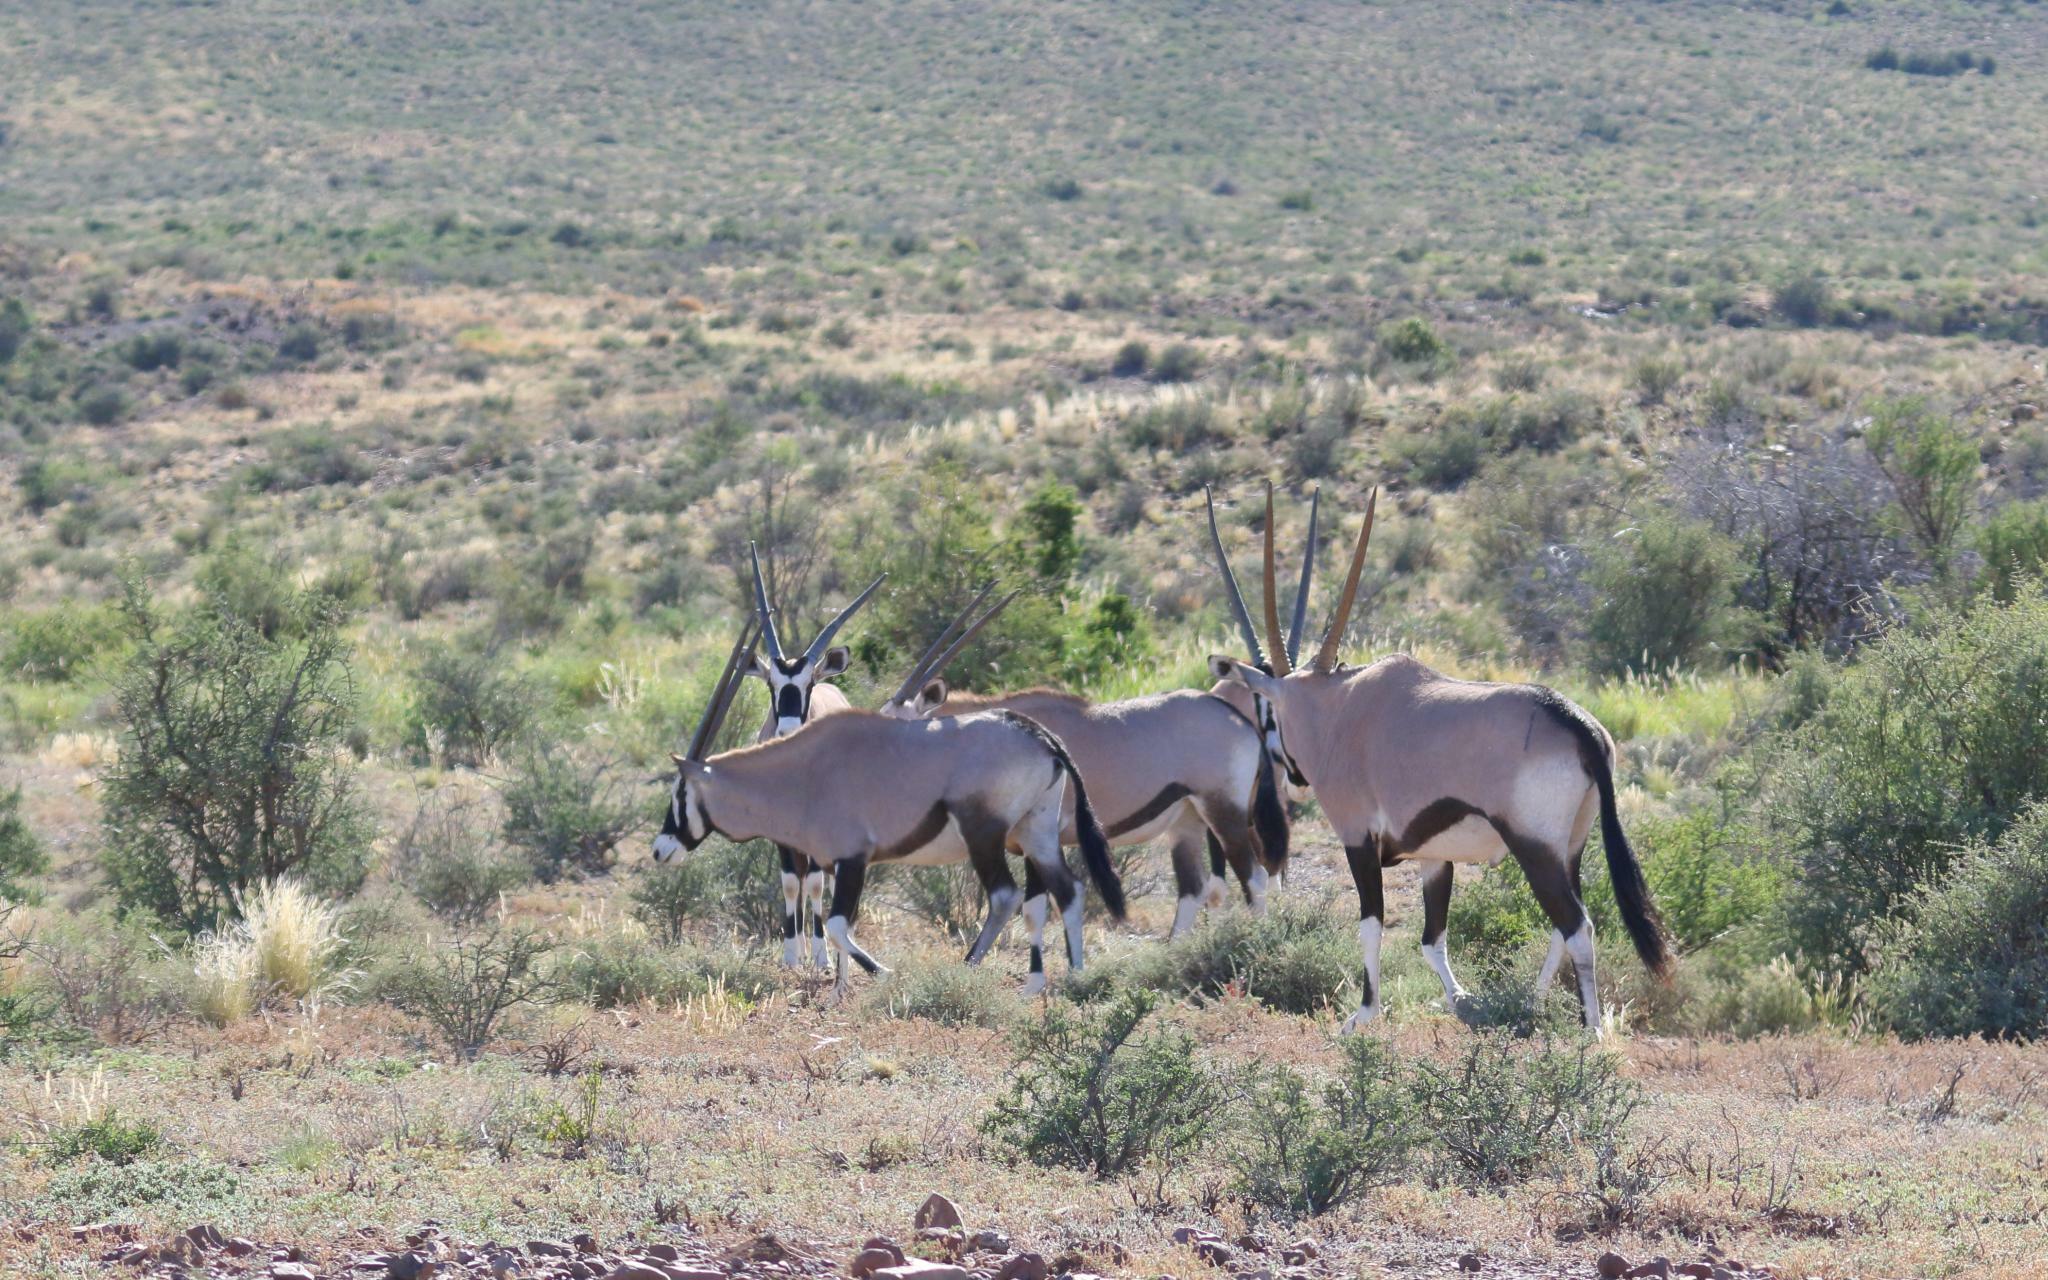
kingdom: Animalia
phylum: Chordata
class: Mammalia
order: Artiodactyla
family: Bovidae
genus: Oryx
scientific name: Oryx gazella
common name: Gemsbok
